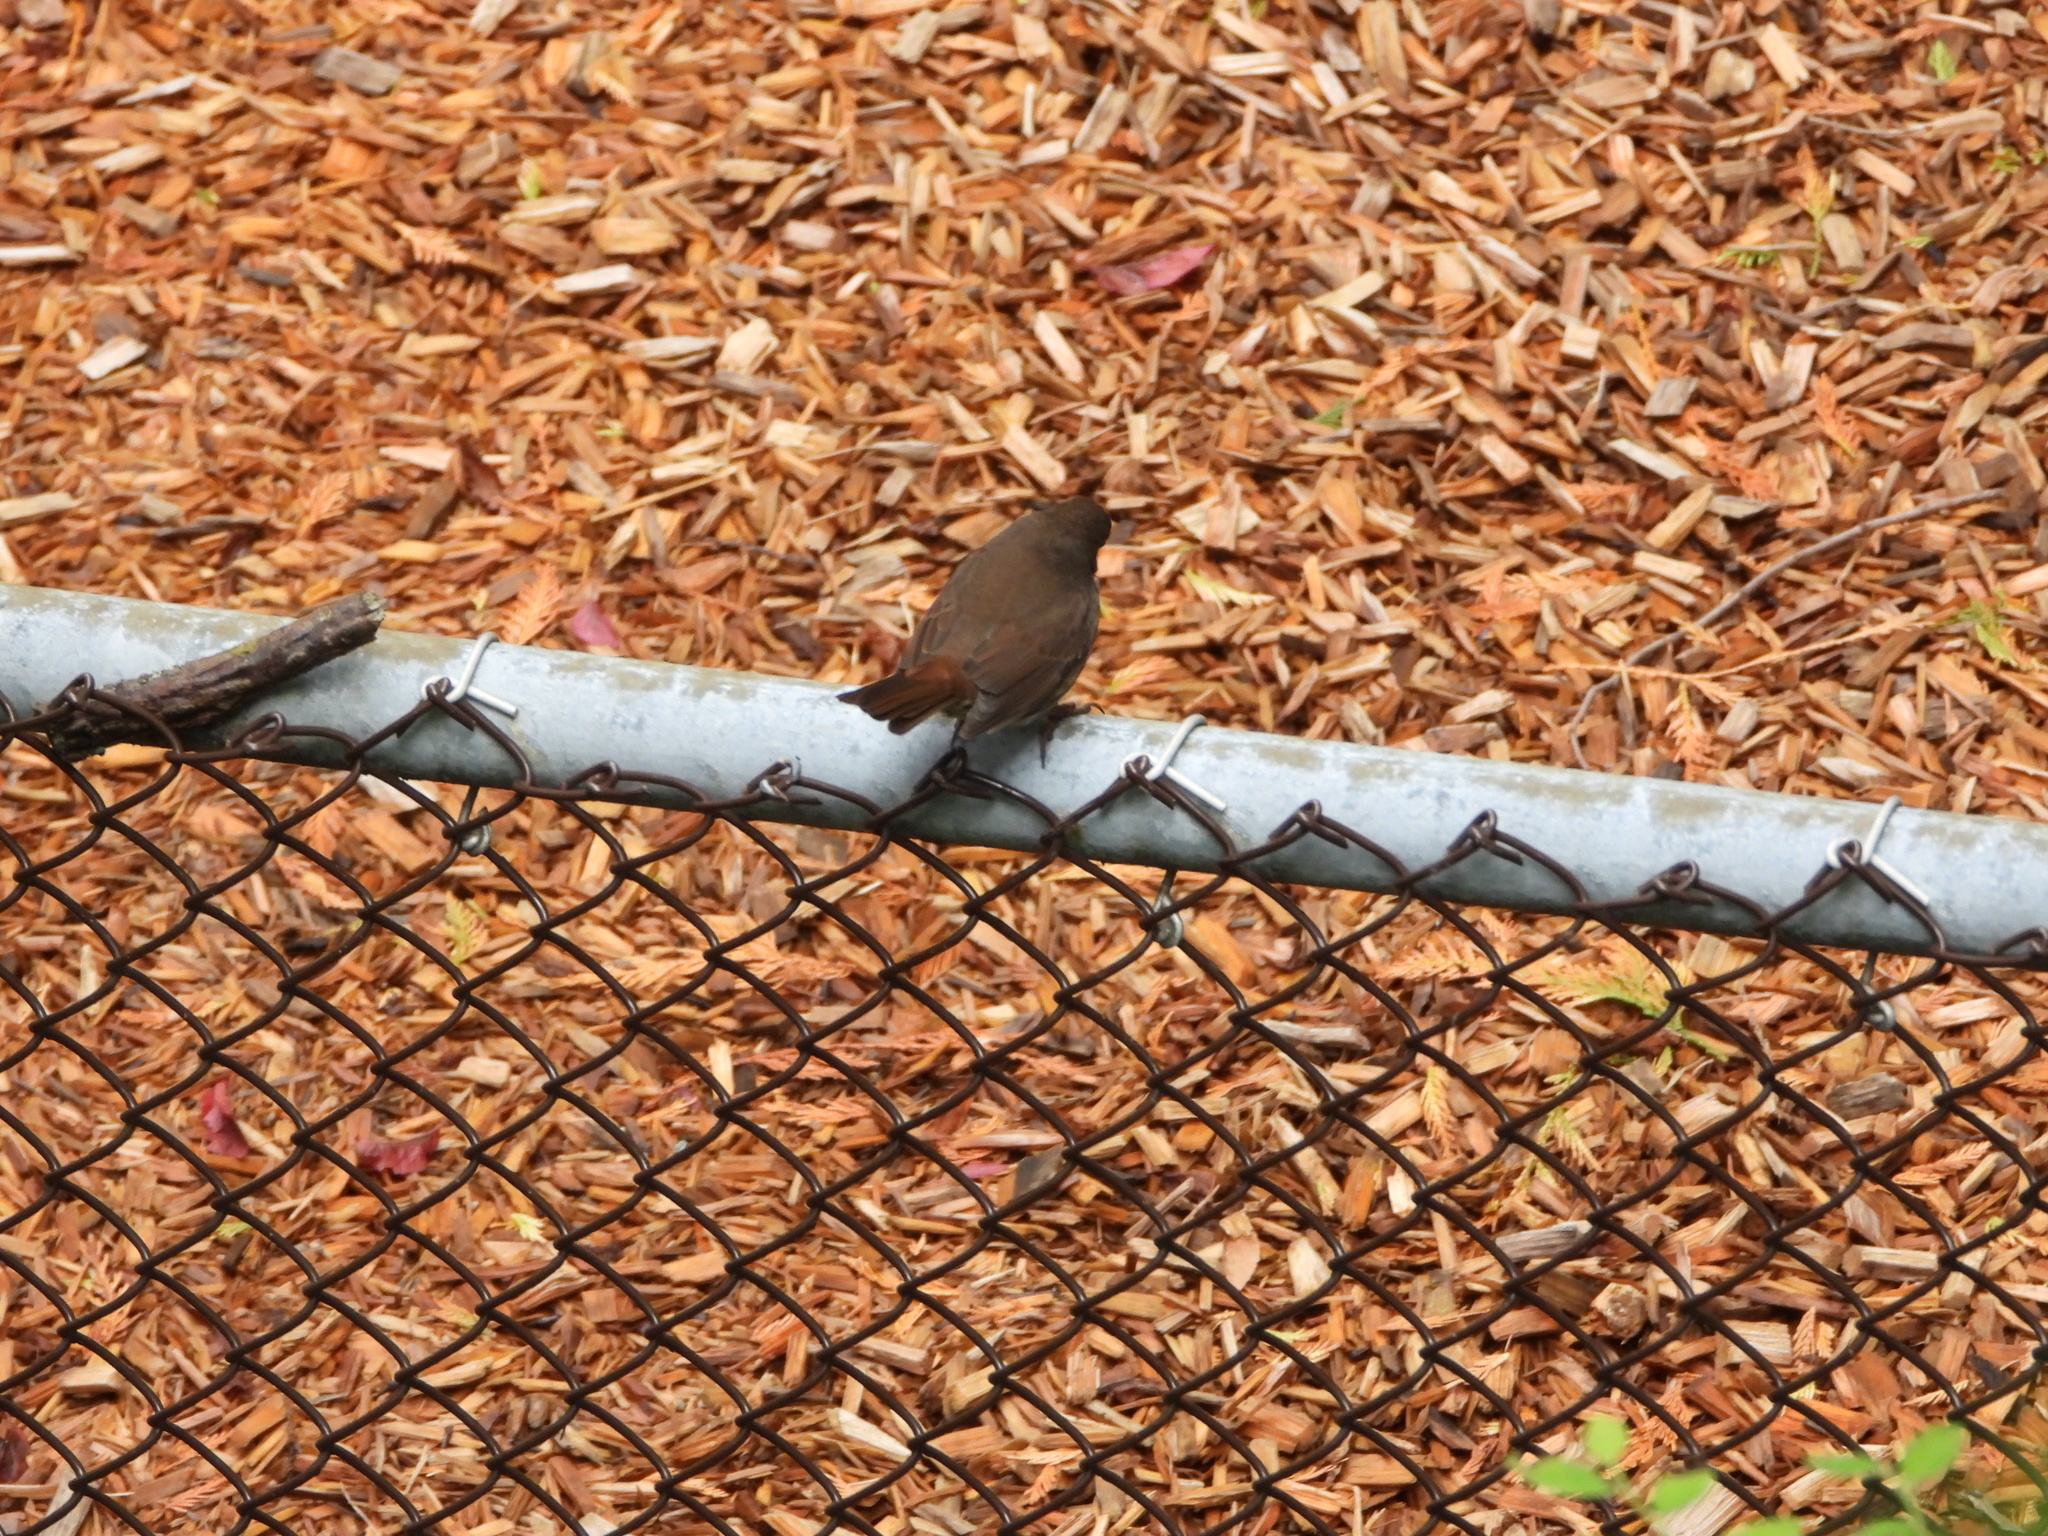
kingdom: Animalia
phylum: Chordata
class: Aves
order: Passeriformes
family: Passerellidae
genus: Passerella
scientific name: Passerella iliaca
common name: Fox sparrow
